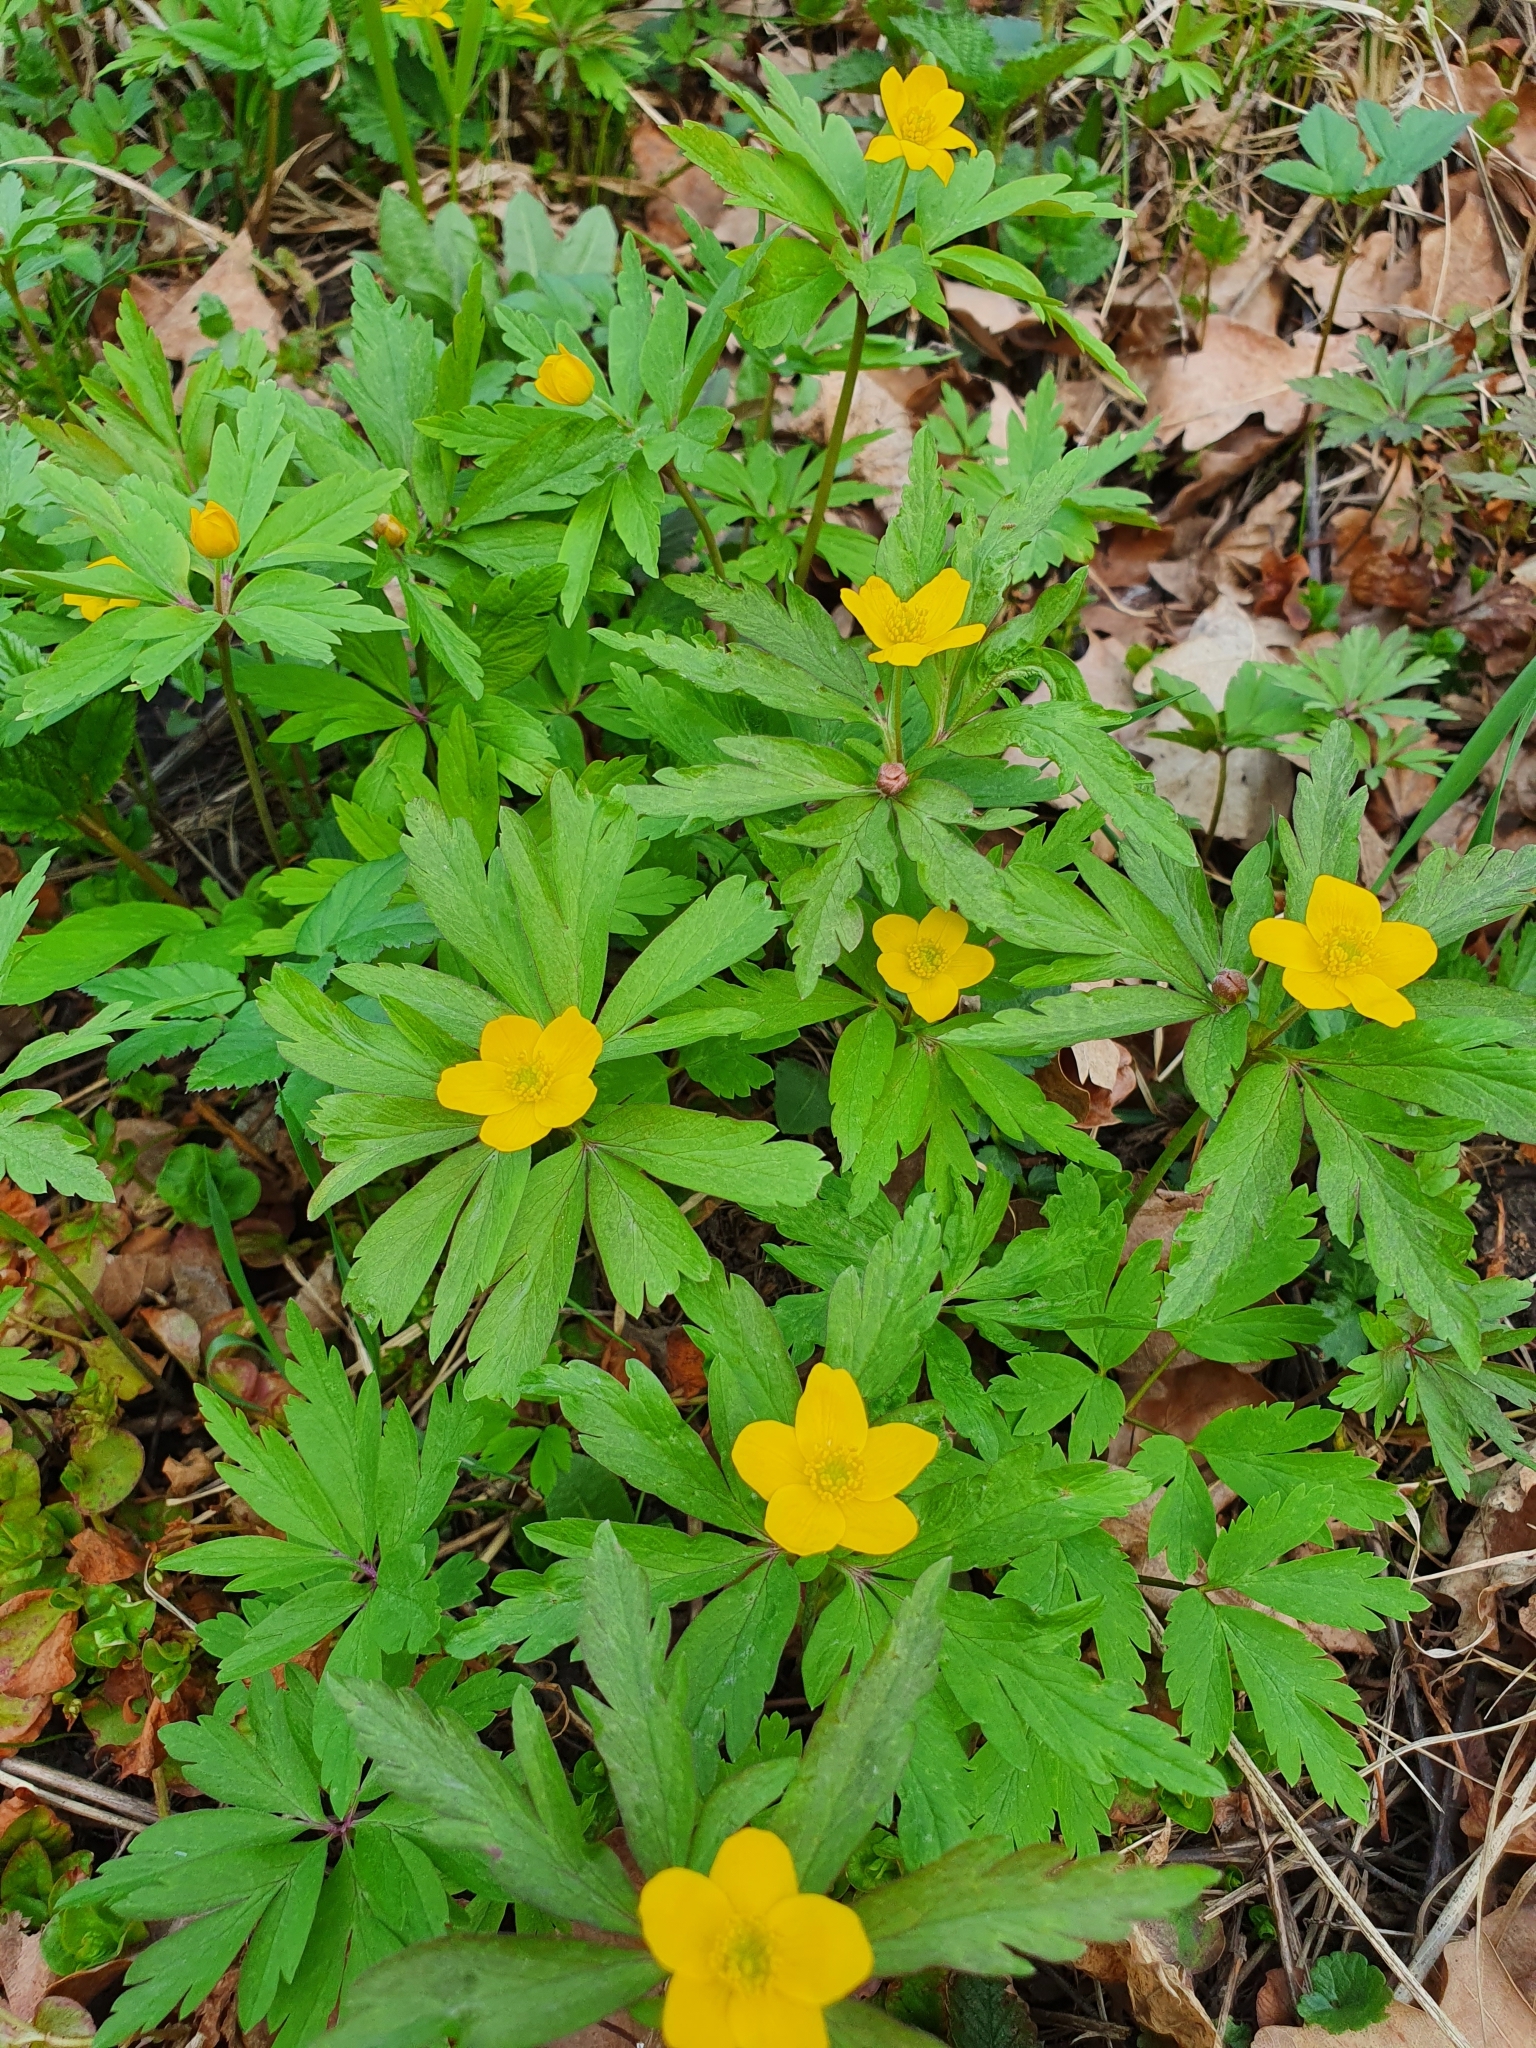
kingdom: Plantae
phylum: Tracheophyta
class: Magnoliopsida
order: Ranunculales
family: Ranunculaceae
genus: Anemone
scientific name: Anemone ranunculoides
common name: Yellow anemone
